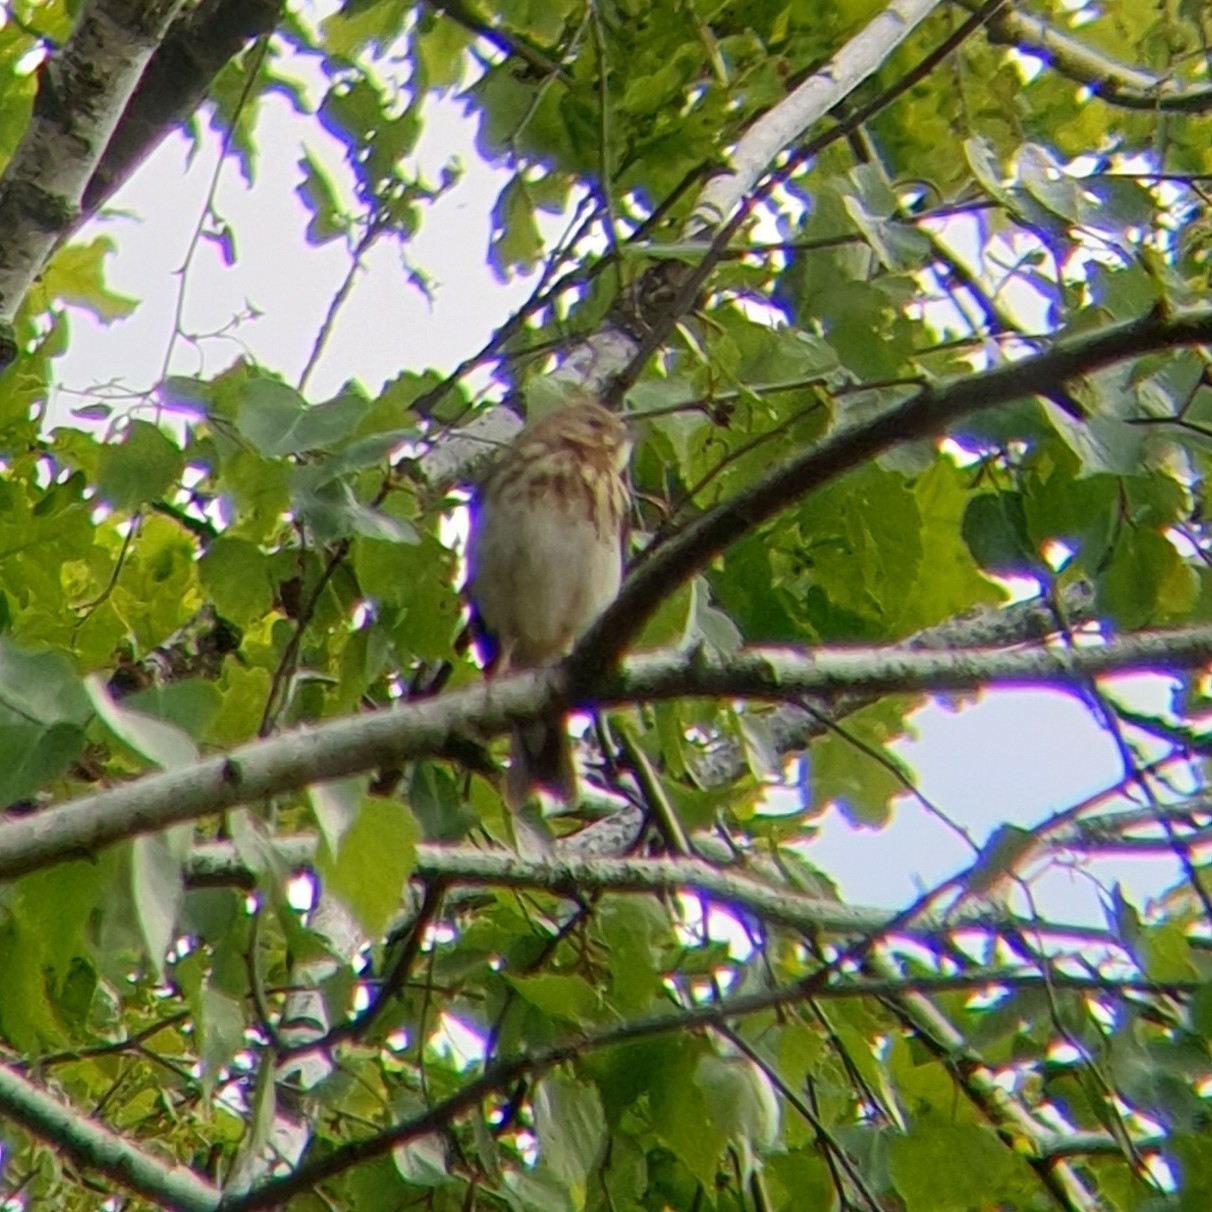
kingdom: Animalia
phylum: Chordata
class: Aves
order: Passeriformes
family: Motacillidae
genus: Anthus
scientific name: Anthus trivialis
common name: Tree pipit
